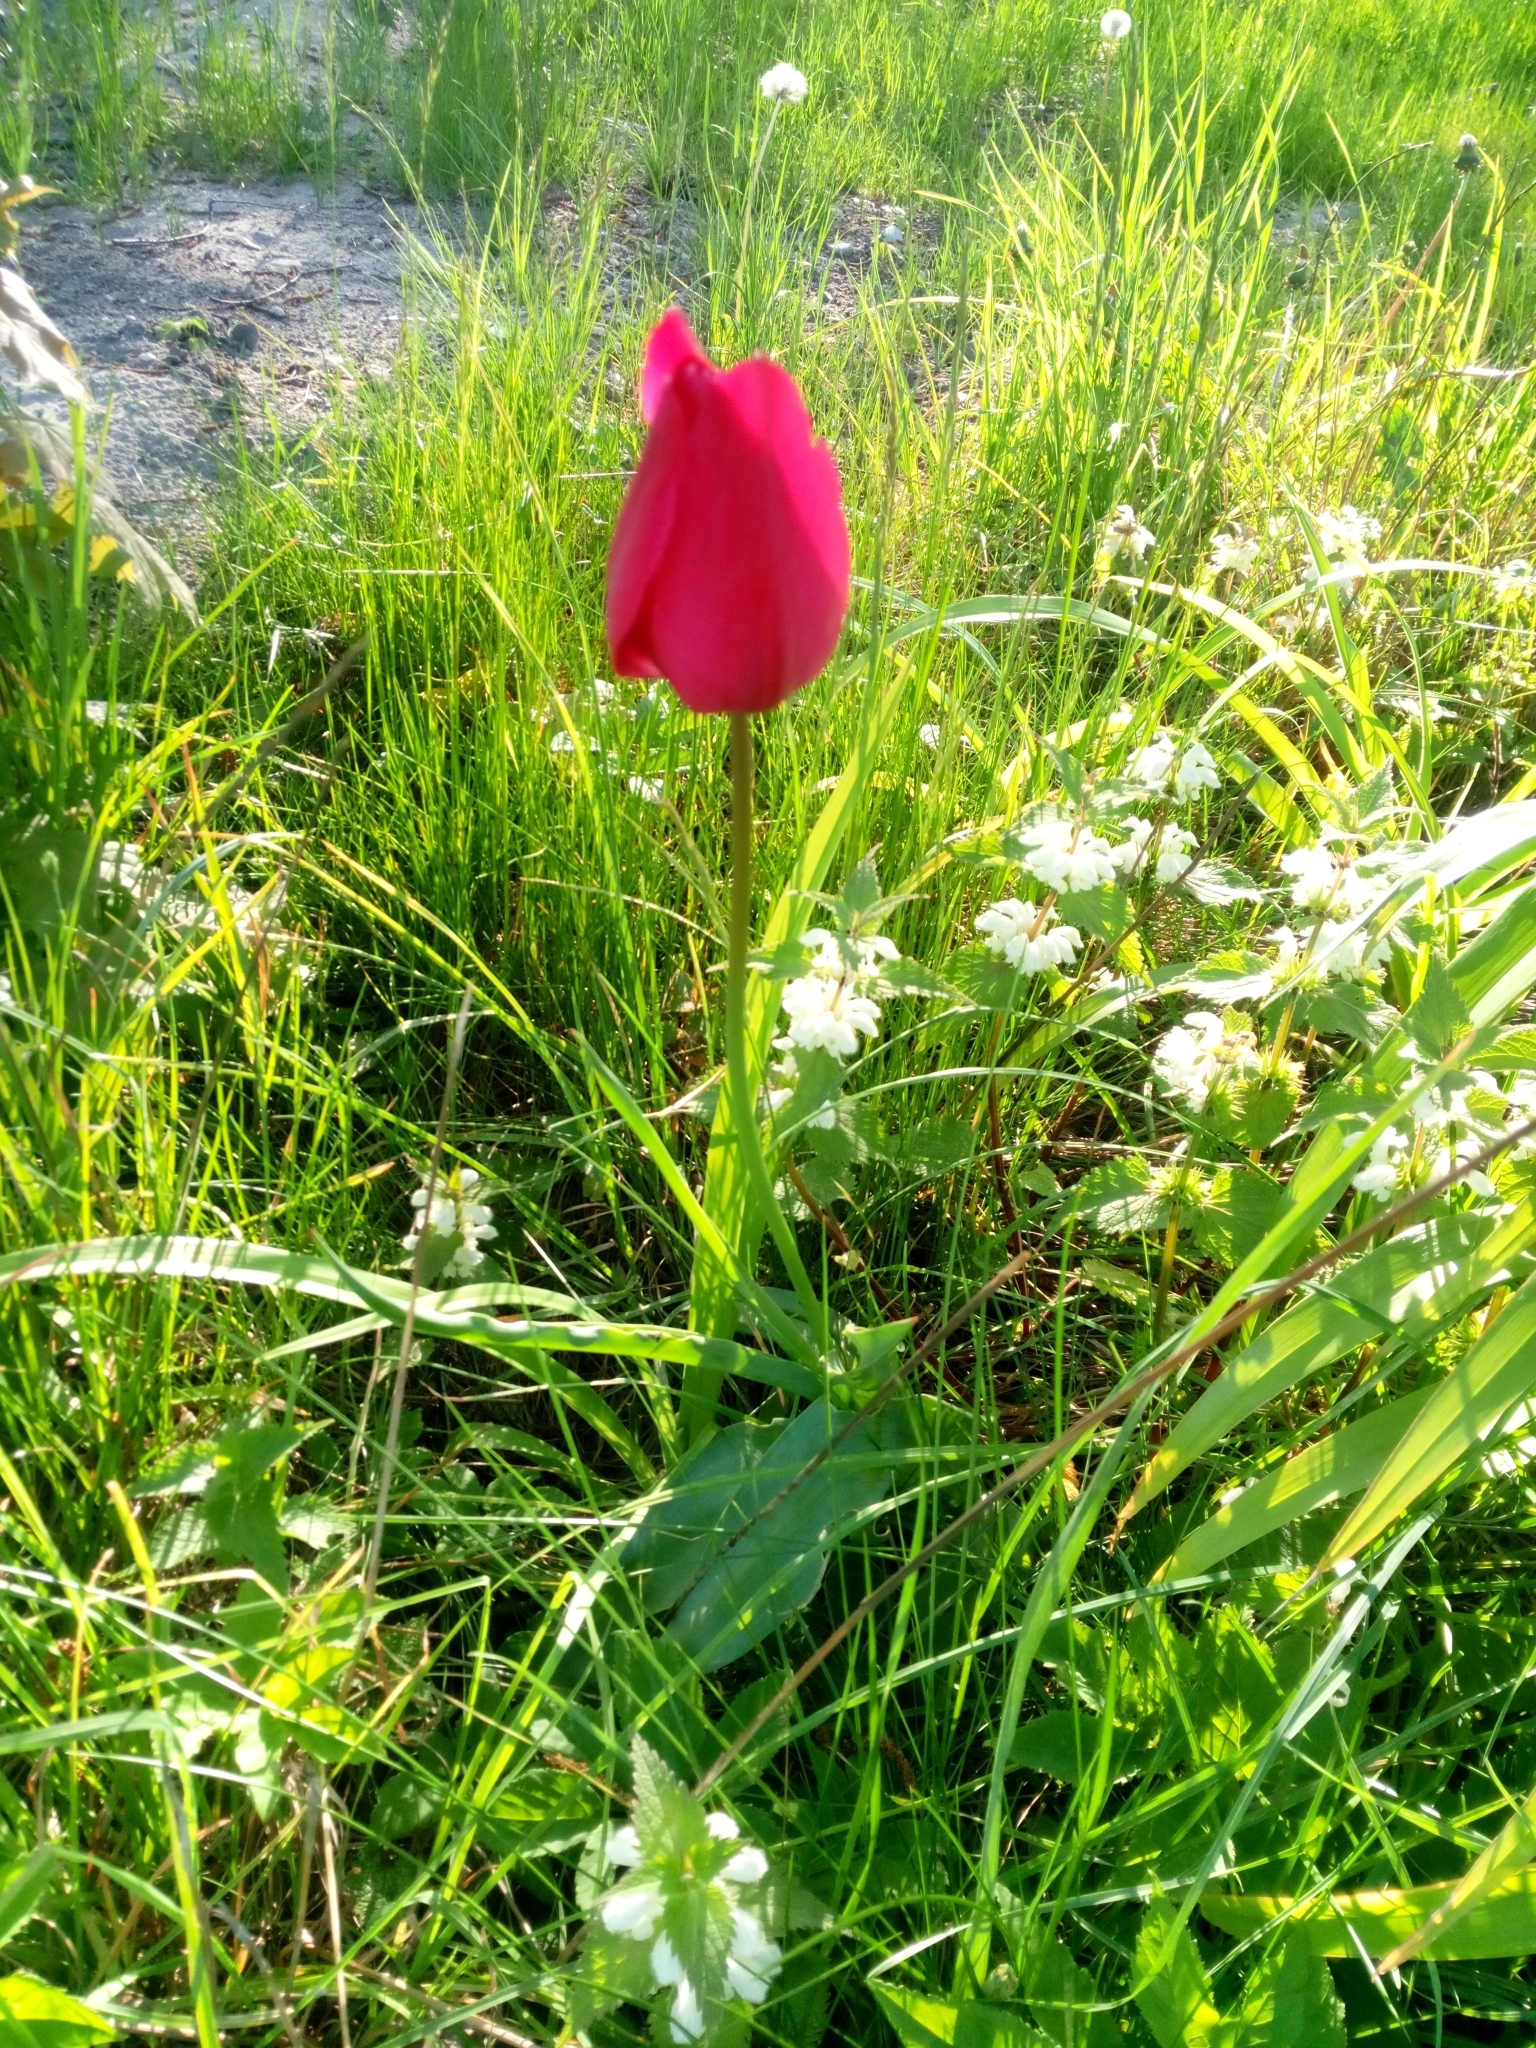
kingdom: Plantae
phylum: Tracheophyta
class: Liliopsida
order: Liliales
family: Liliaceae
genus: Tulipa
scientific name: Tulipa gesneriana
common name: Garden tulip
